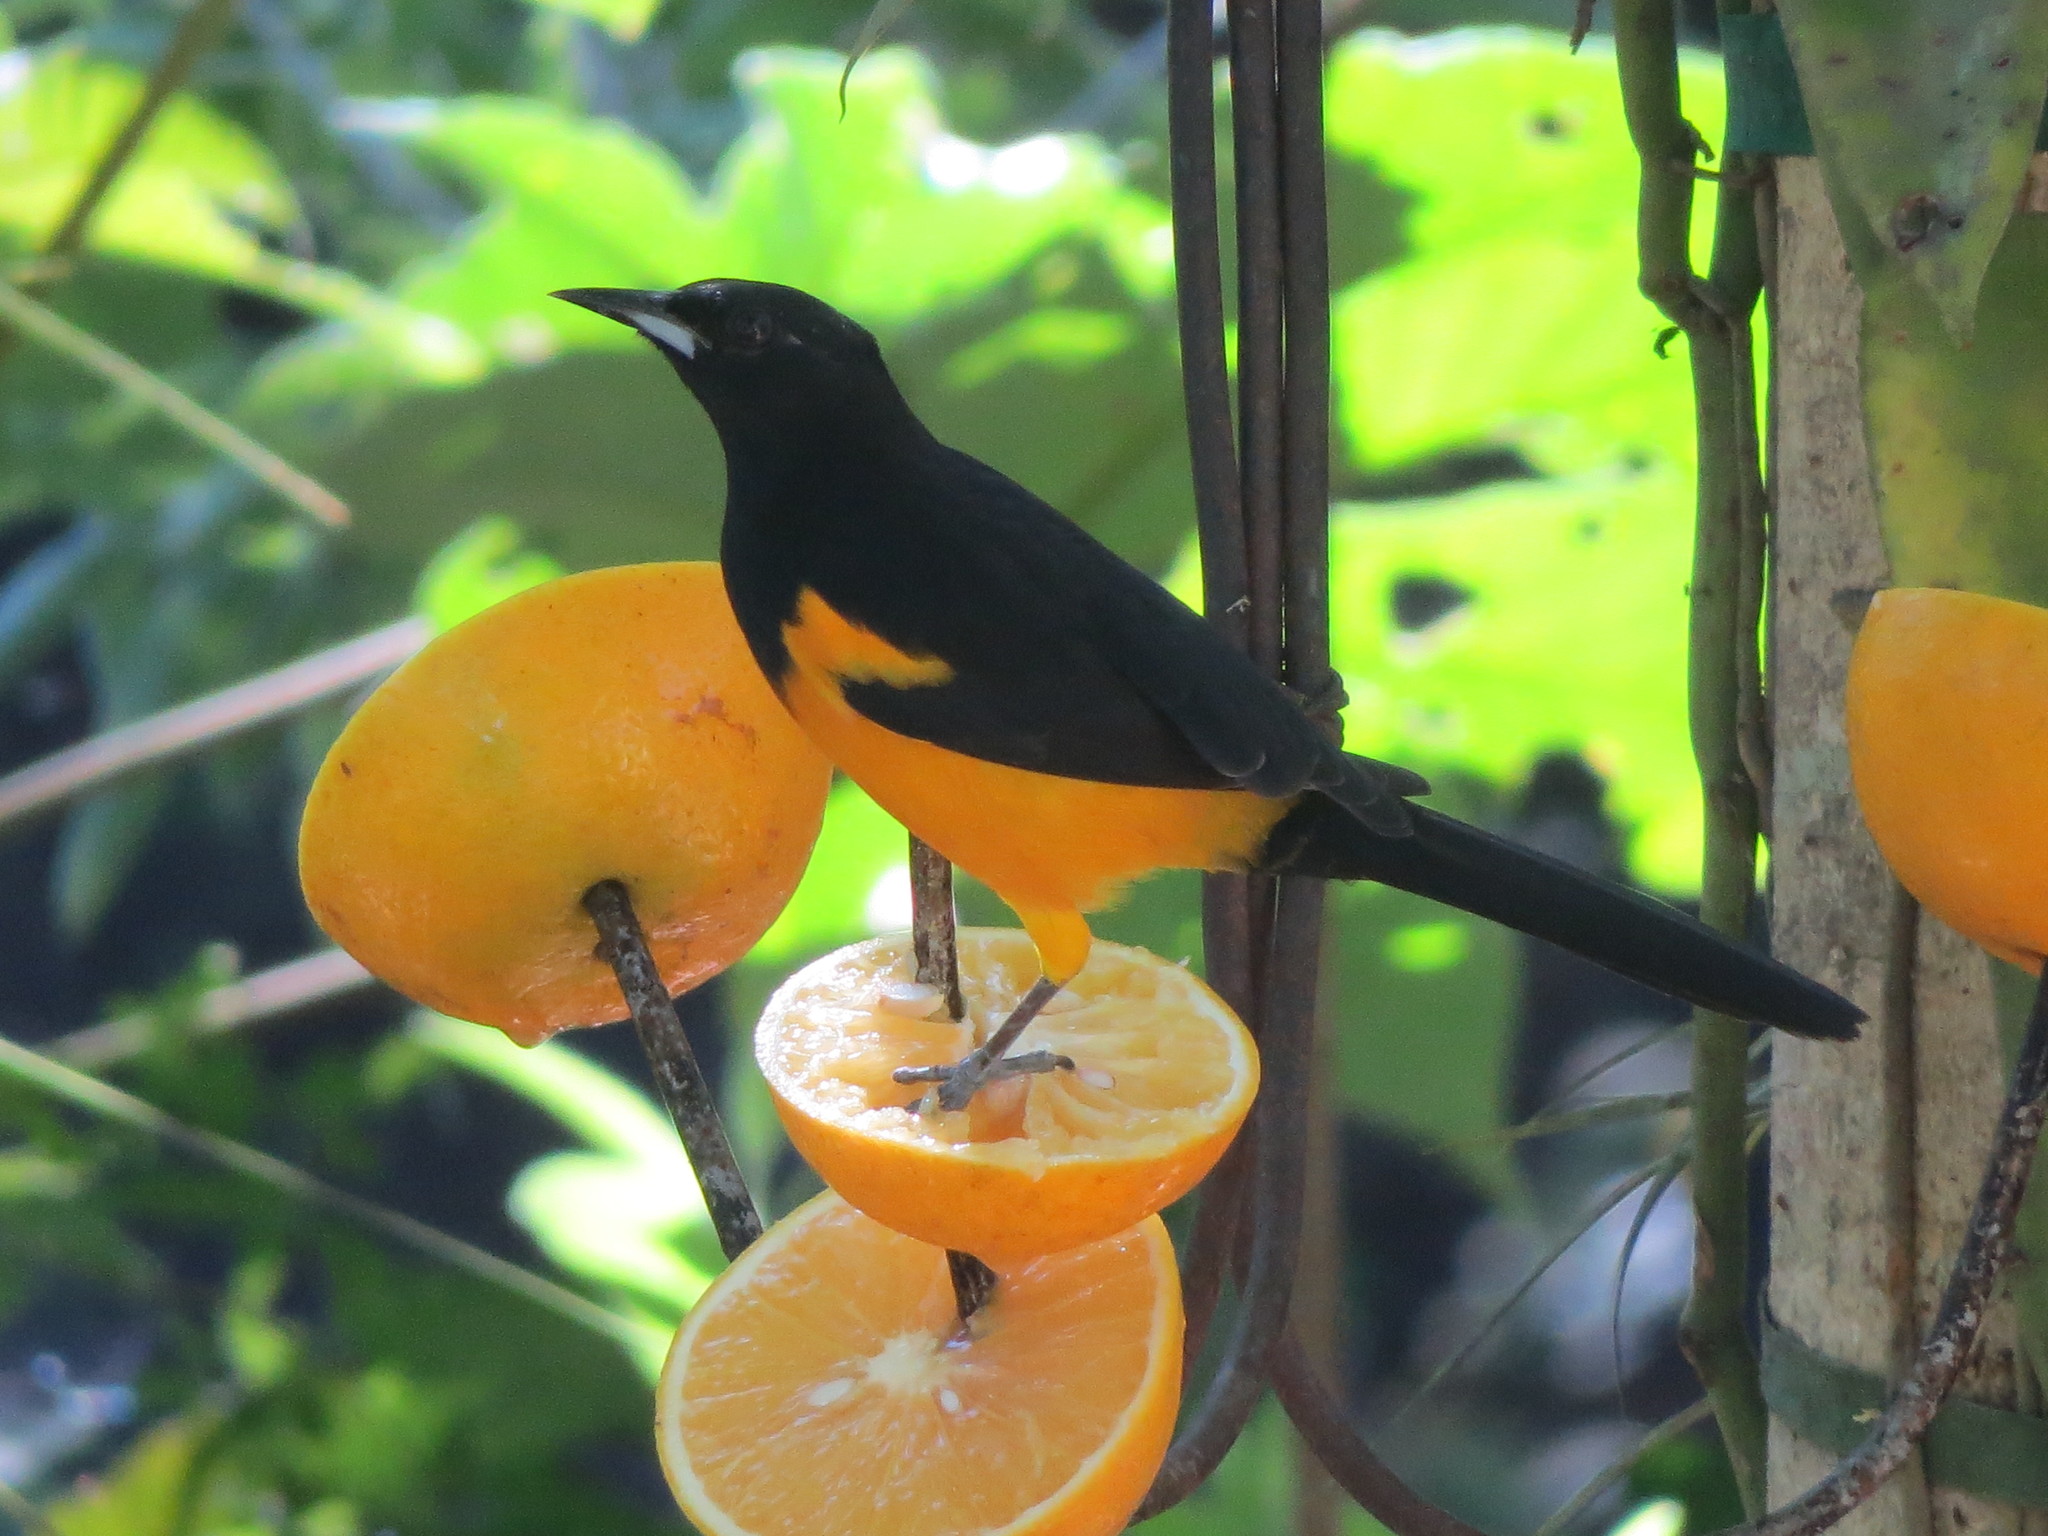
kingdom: Animalia
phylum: Chordata
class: Aves
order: Passeriformes
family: Icteridae
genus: Icterus
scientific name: Icterus wagleri
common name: Black-vented oriole
